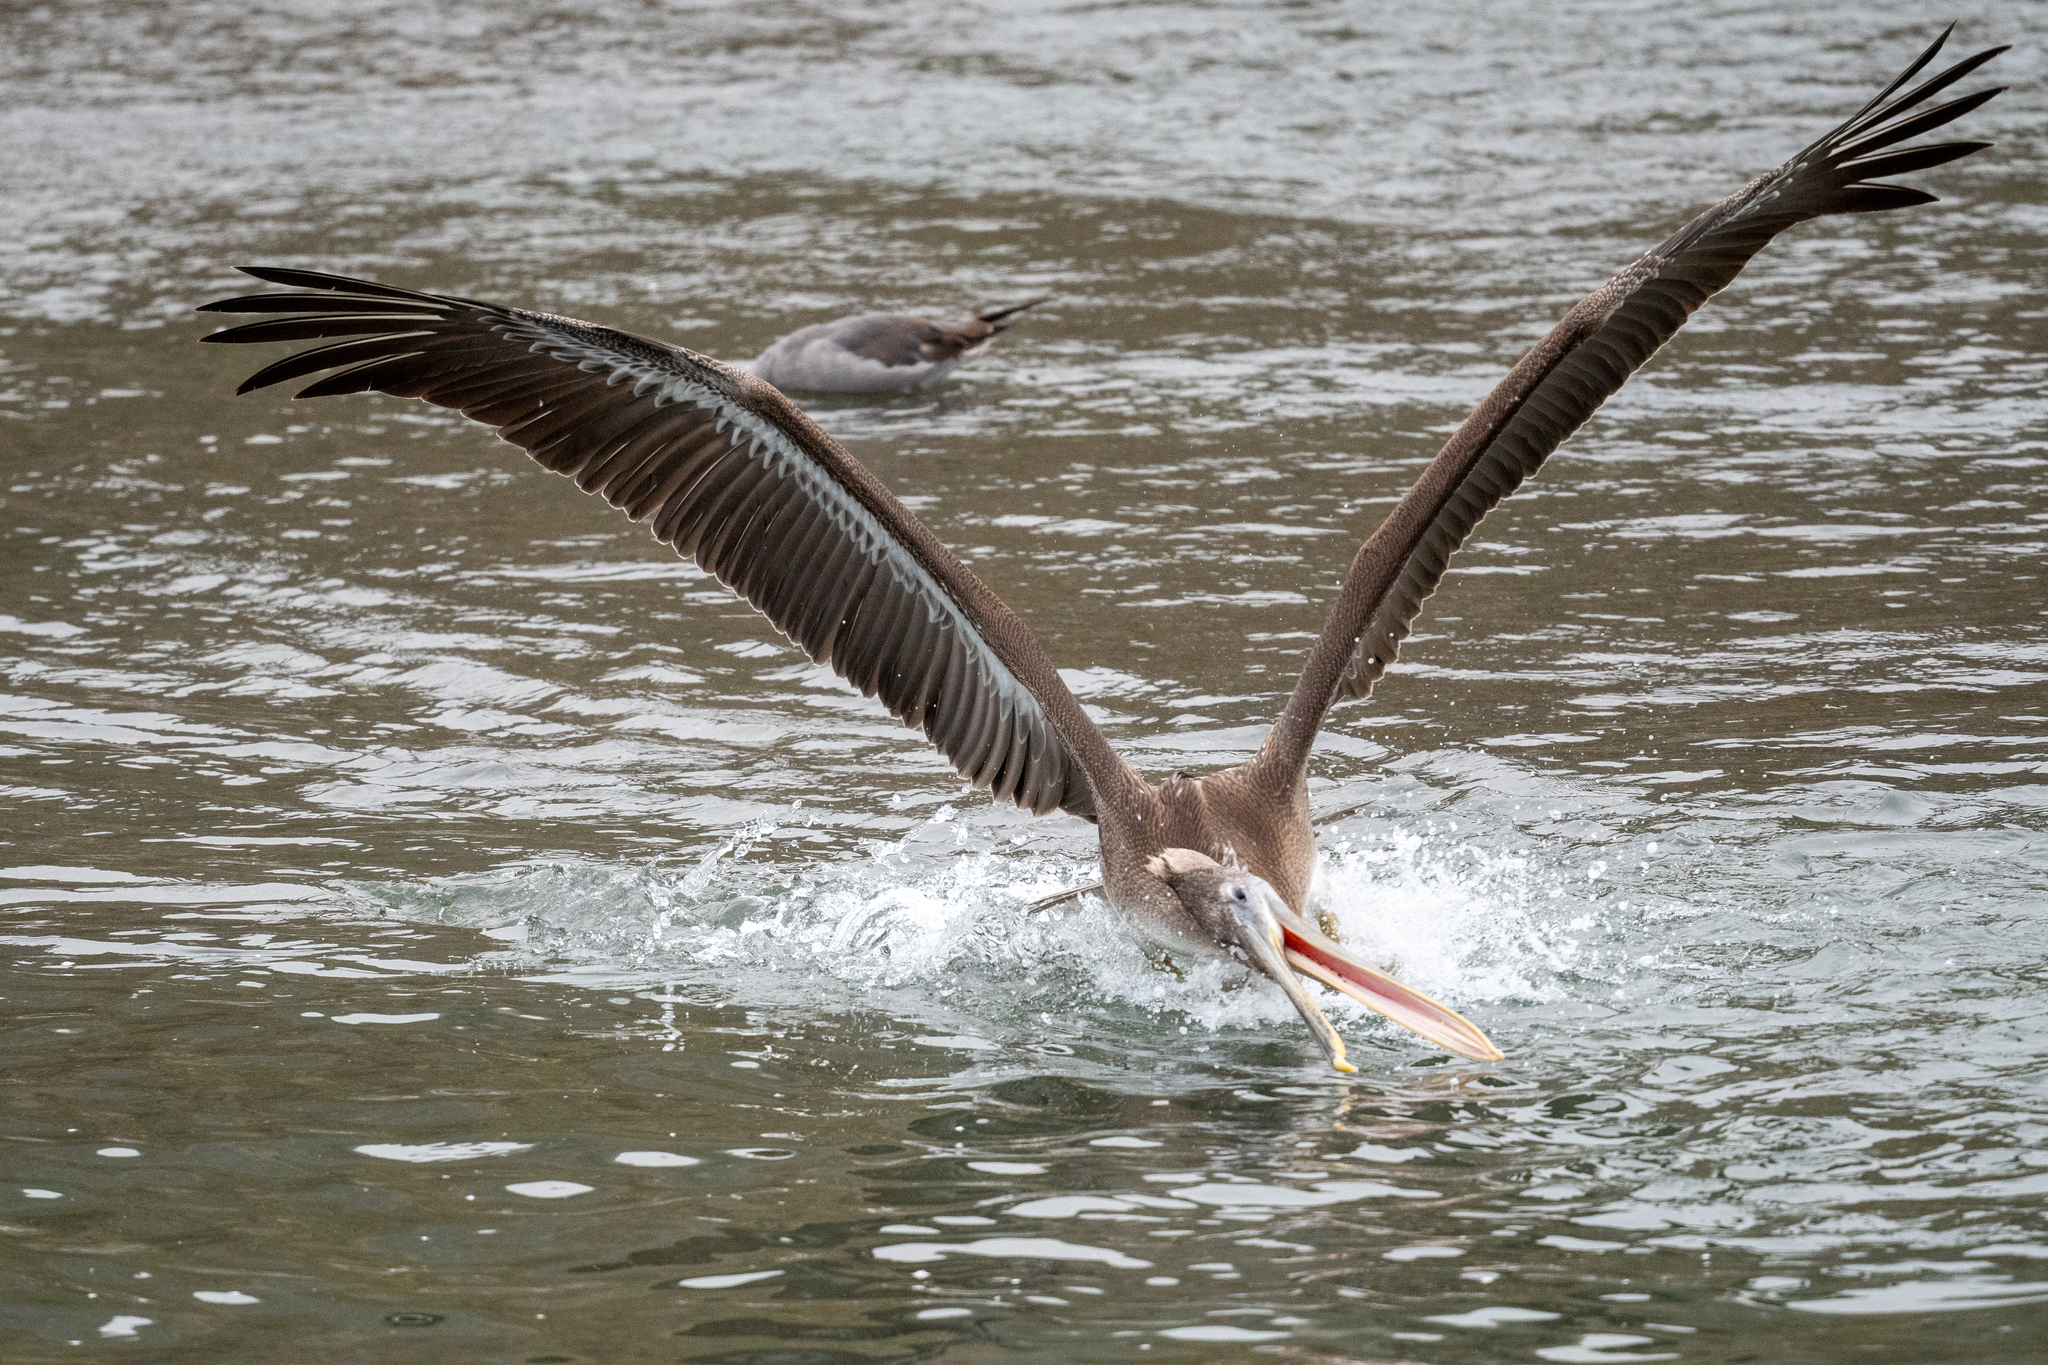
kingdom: Animalia
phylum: Chordata
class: Aves
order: Pelecaniformes
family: Pelecanidae
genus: Pelecanus
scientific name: Pelecanus occidentalis
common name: Brown pelican
